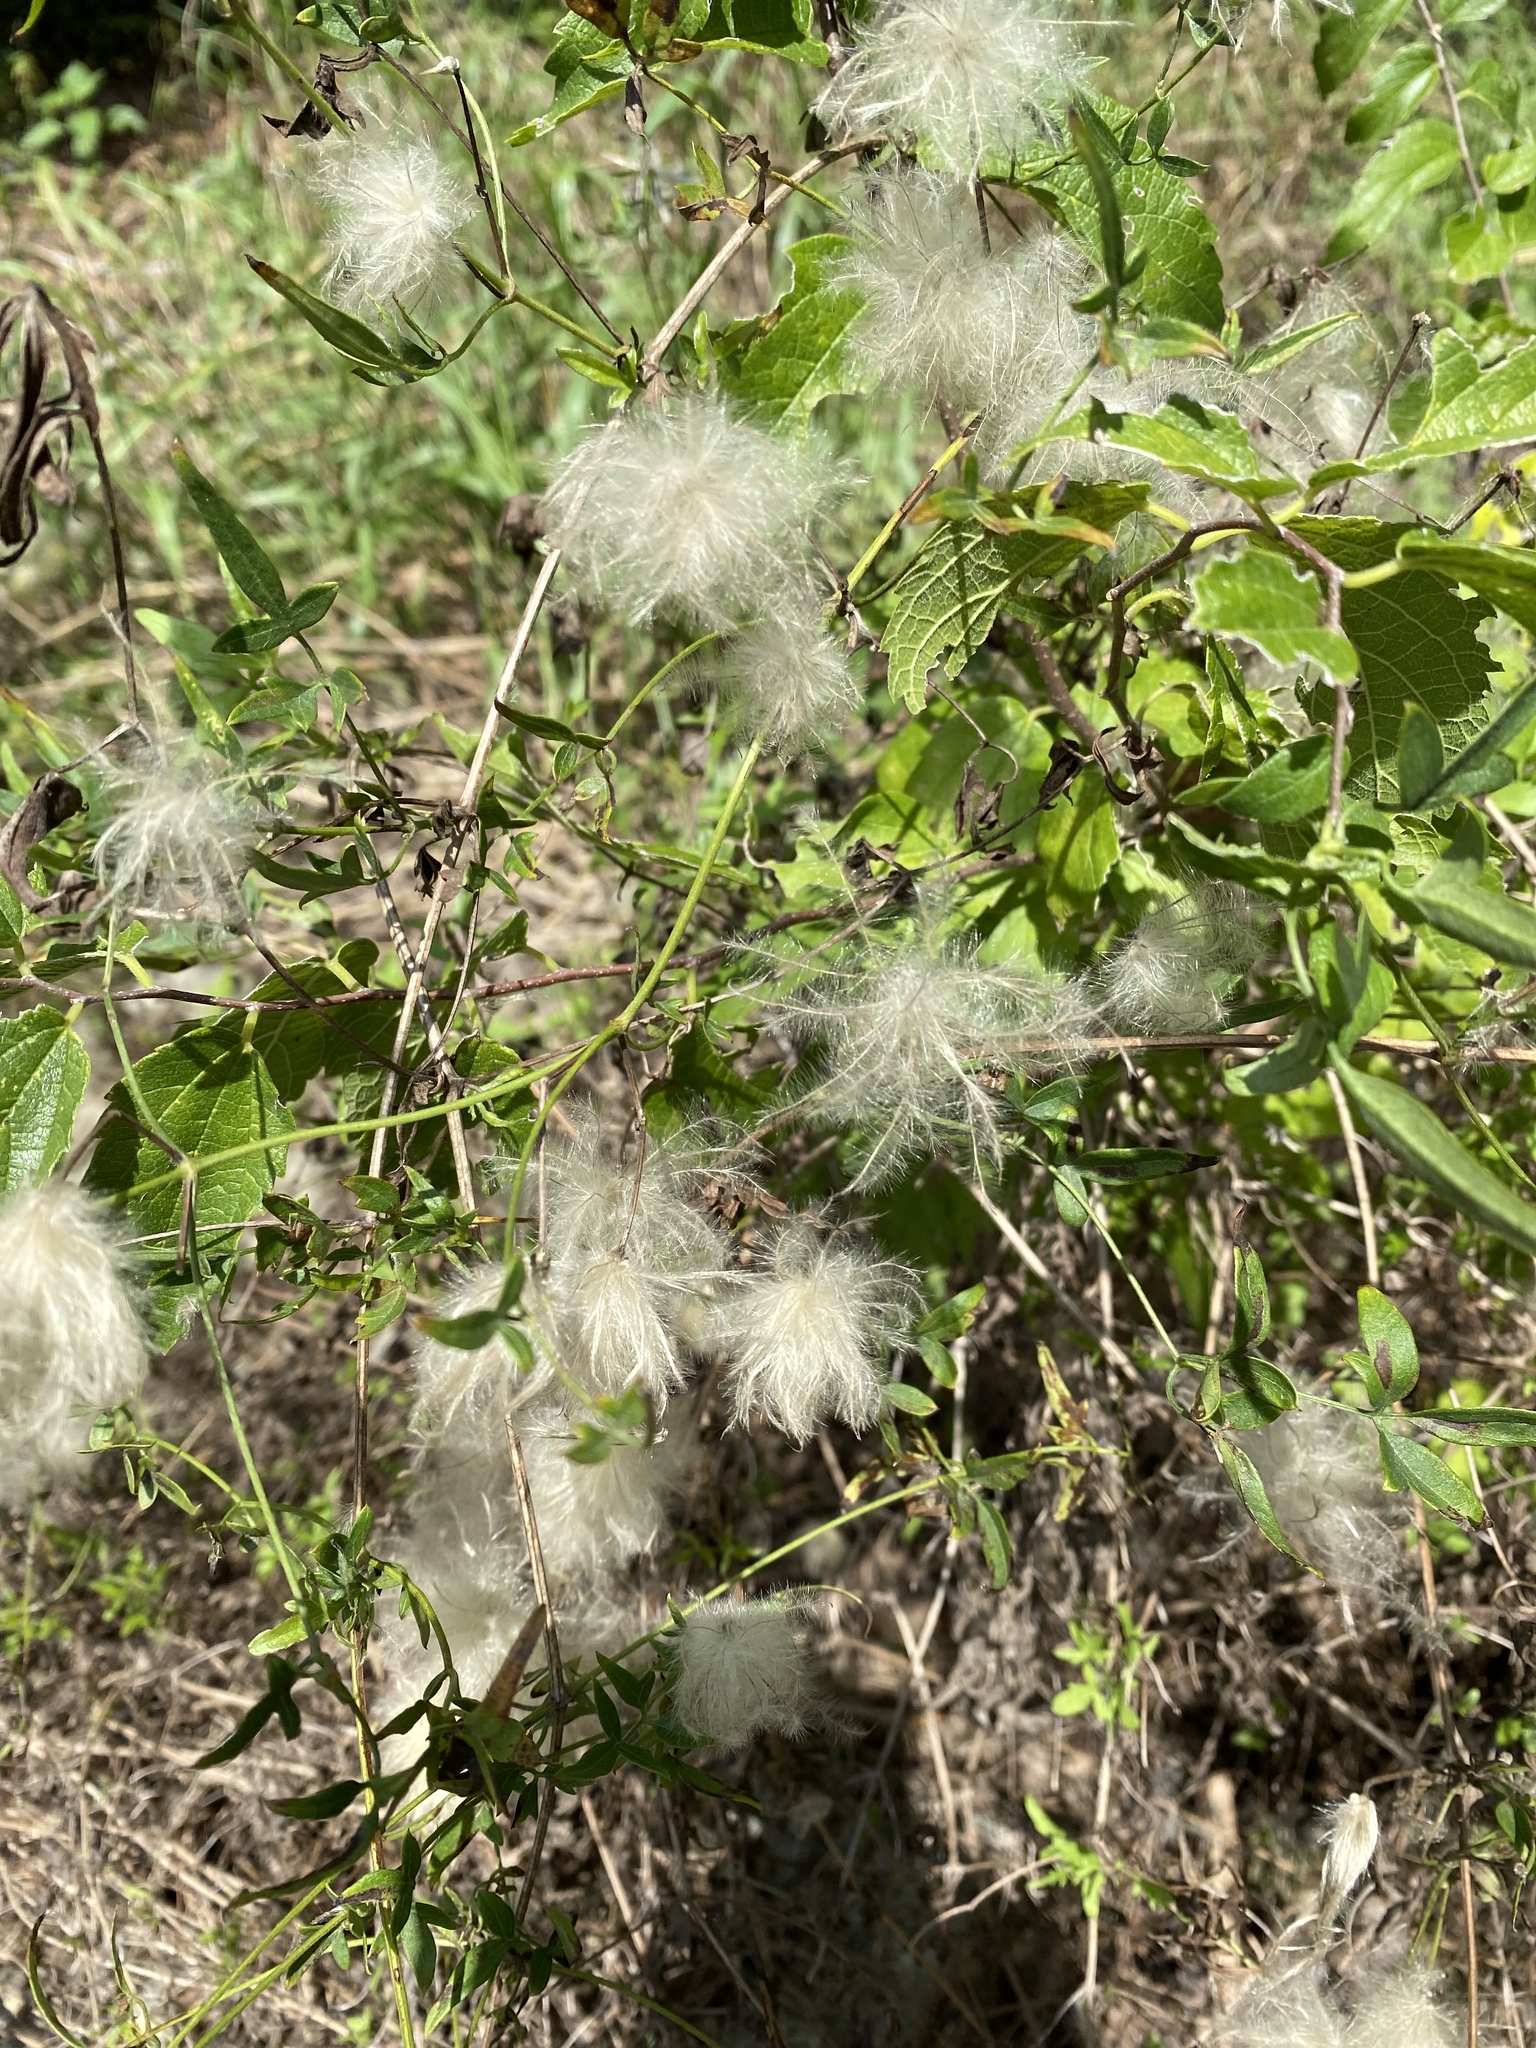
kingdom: Plantae
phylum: Tracheophyta
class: Magnoliopsida
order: Ranunculales
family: Ranunculaceae
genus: Clematis
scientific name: Clematis drummondii
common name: Texas virgin's bower
